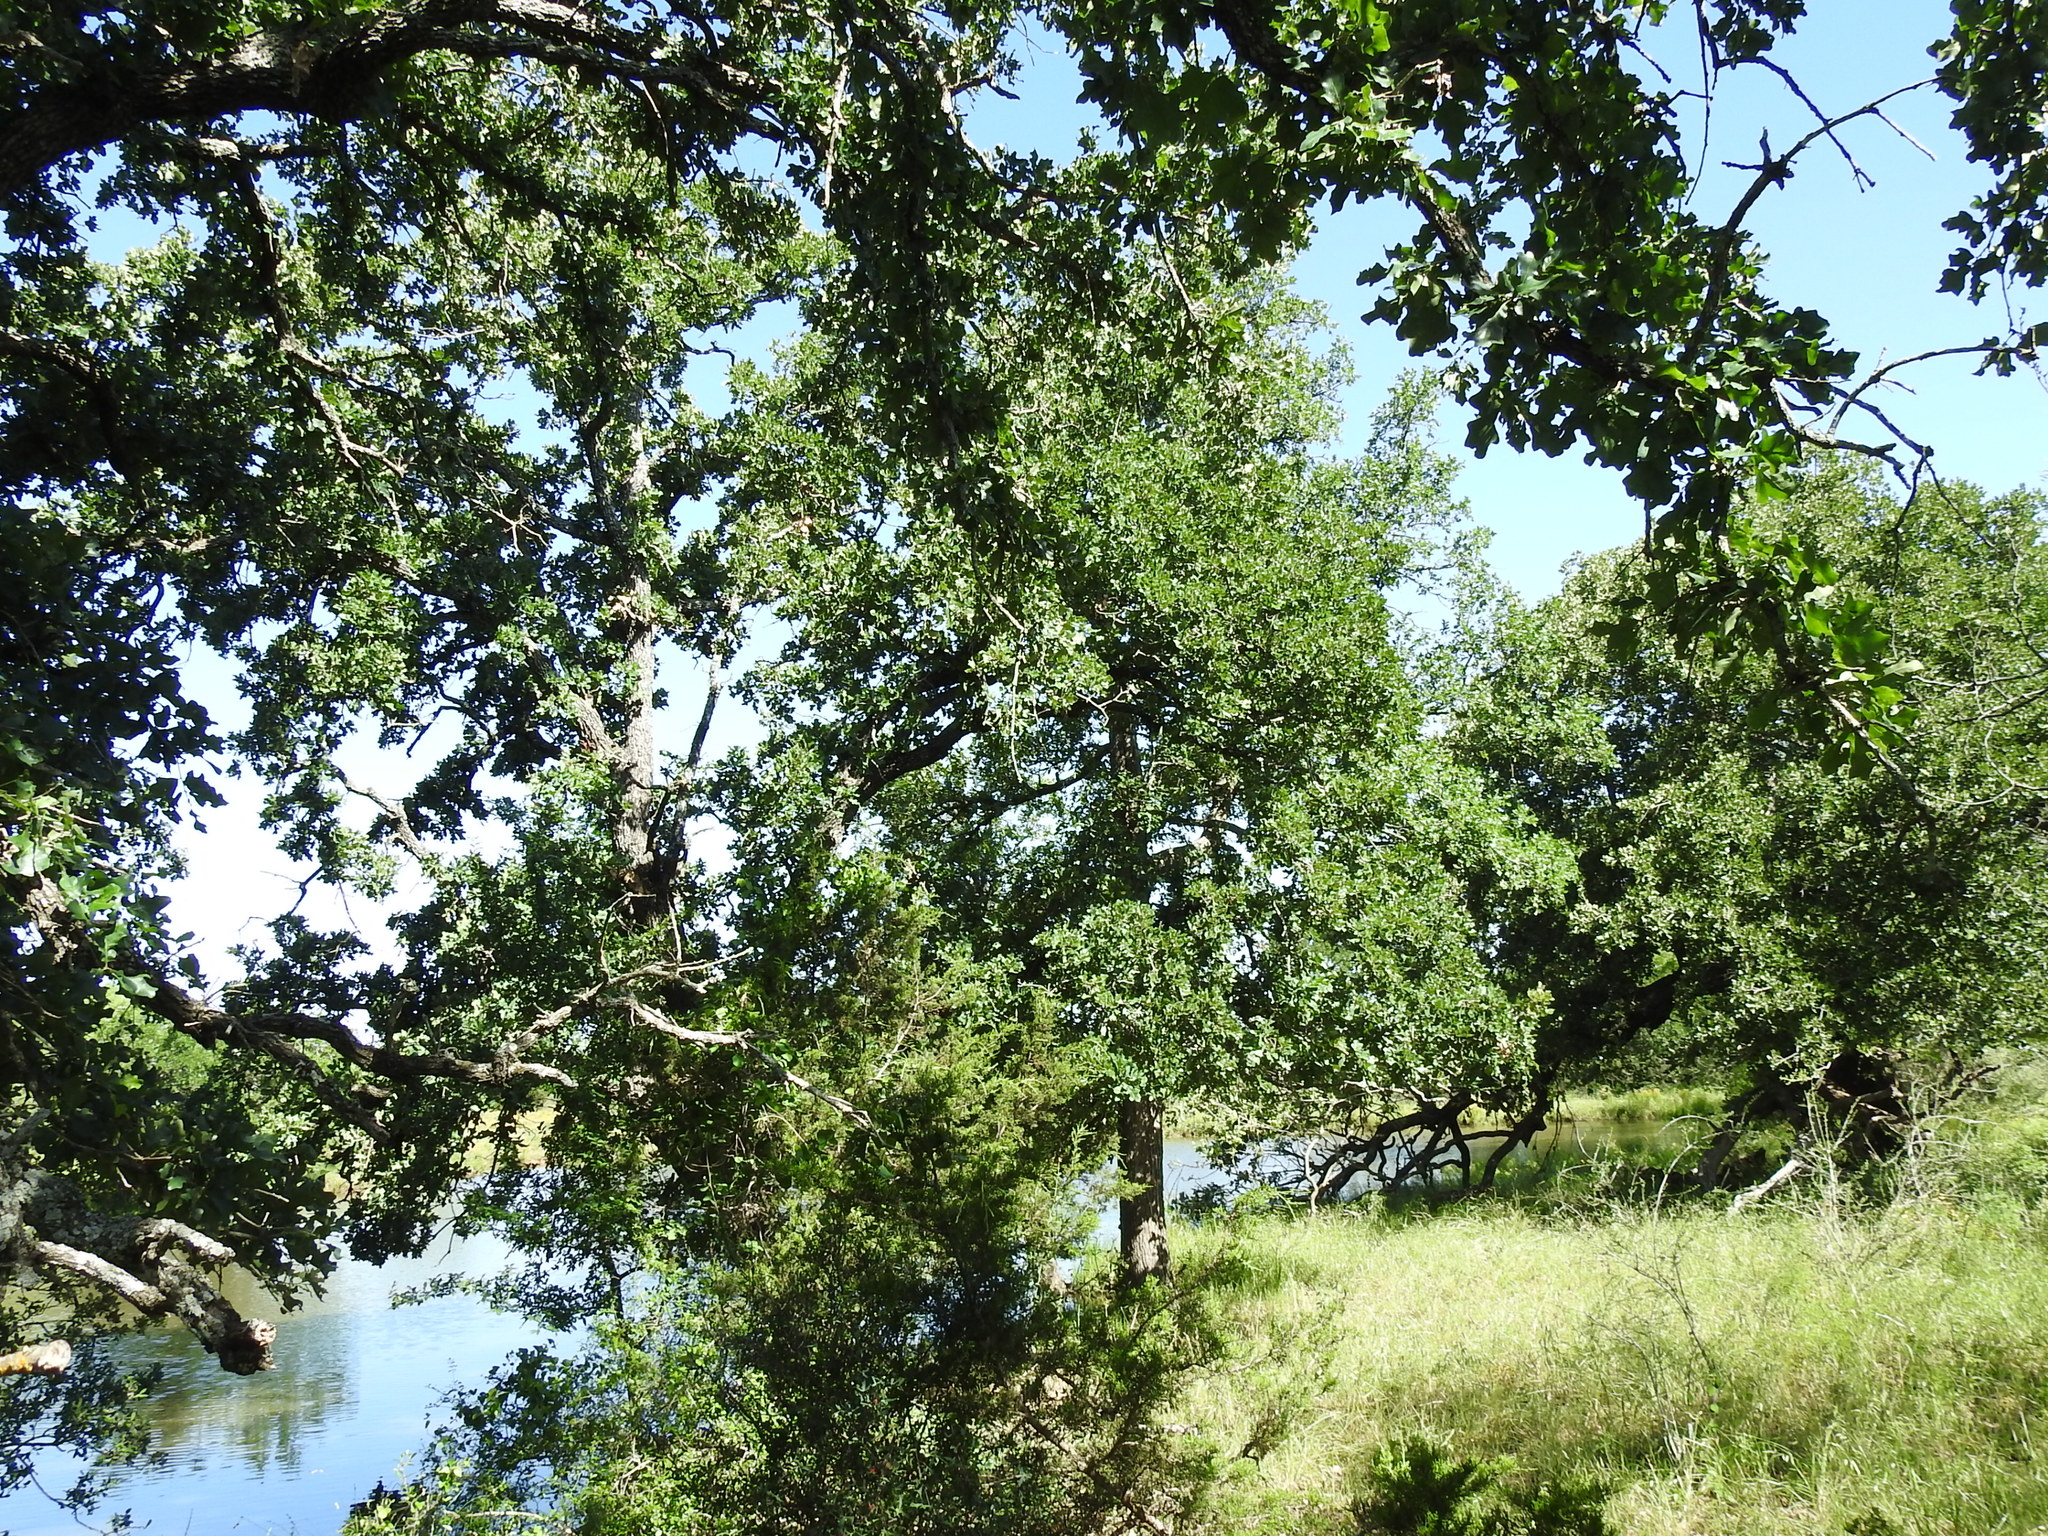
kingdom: Plantae
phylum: Tracheophyta
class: Magnoliopsida
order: Fagales
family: Fagaceae
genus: Quercus
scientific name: Quercus stellata
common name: Post oak
